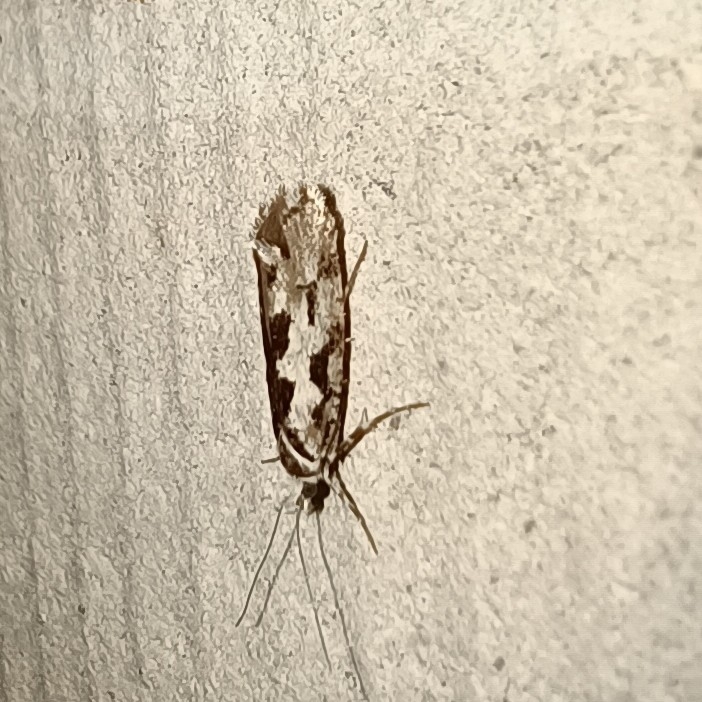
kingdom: Animalia
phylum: Arthropoda
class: Insecta
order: Lepidoptera
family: Plutellidae
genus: Ypsolophus
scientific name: Ypsolophus sequella
